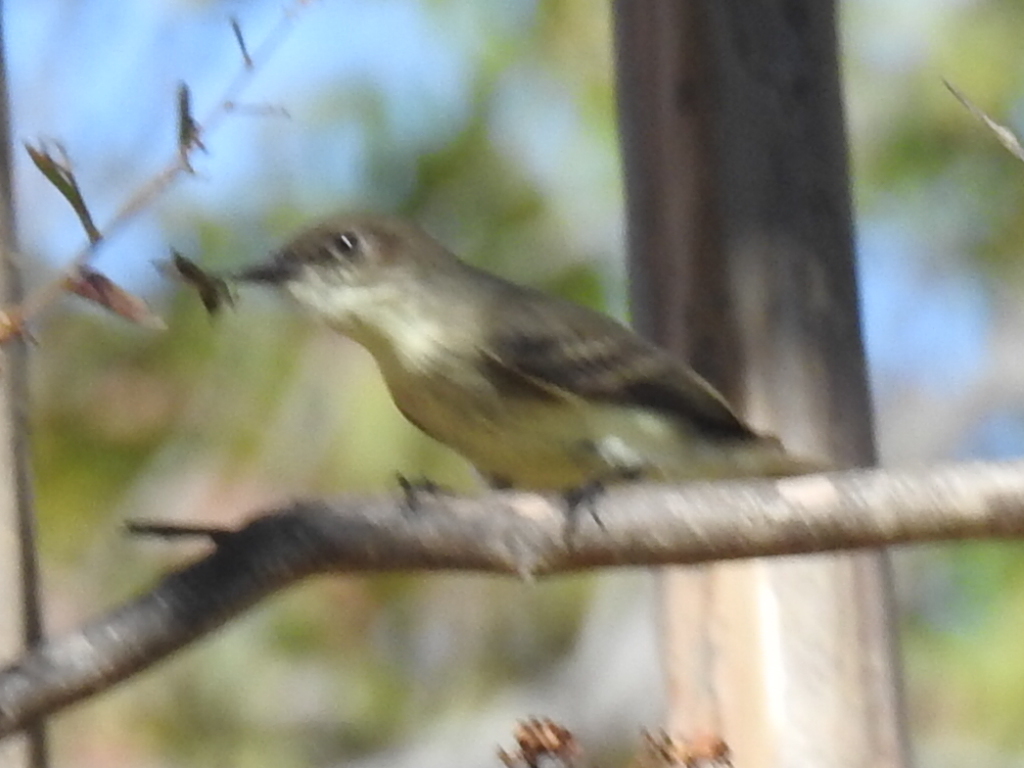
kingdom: Animalia
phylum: Chordata
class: Aves
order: Passeriformes
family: Tyrannidae
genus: Sayornis
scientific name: Sayornis phoebe
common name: Eastern phoebe
